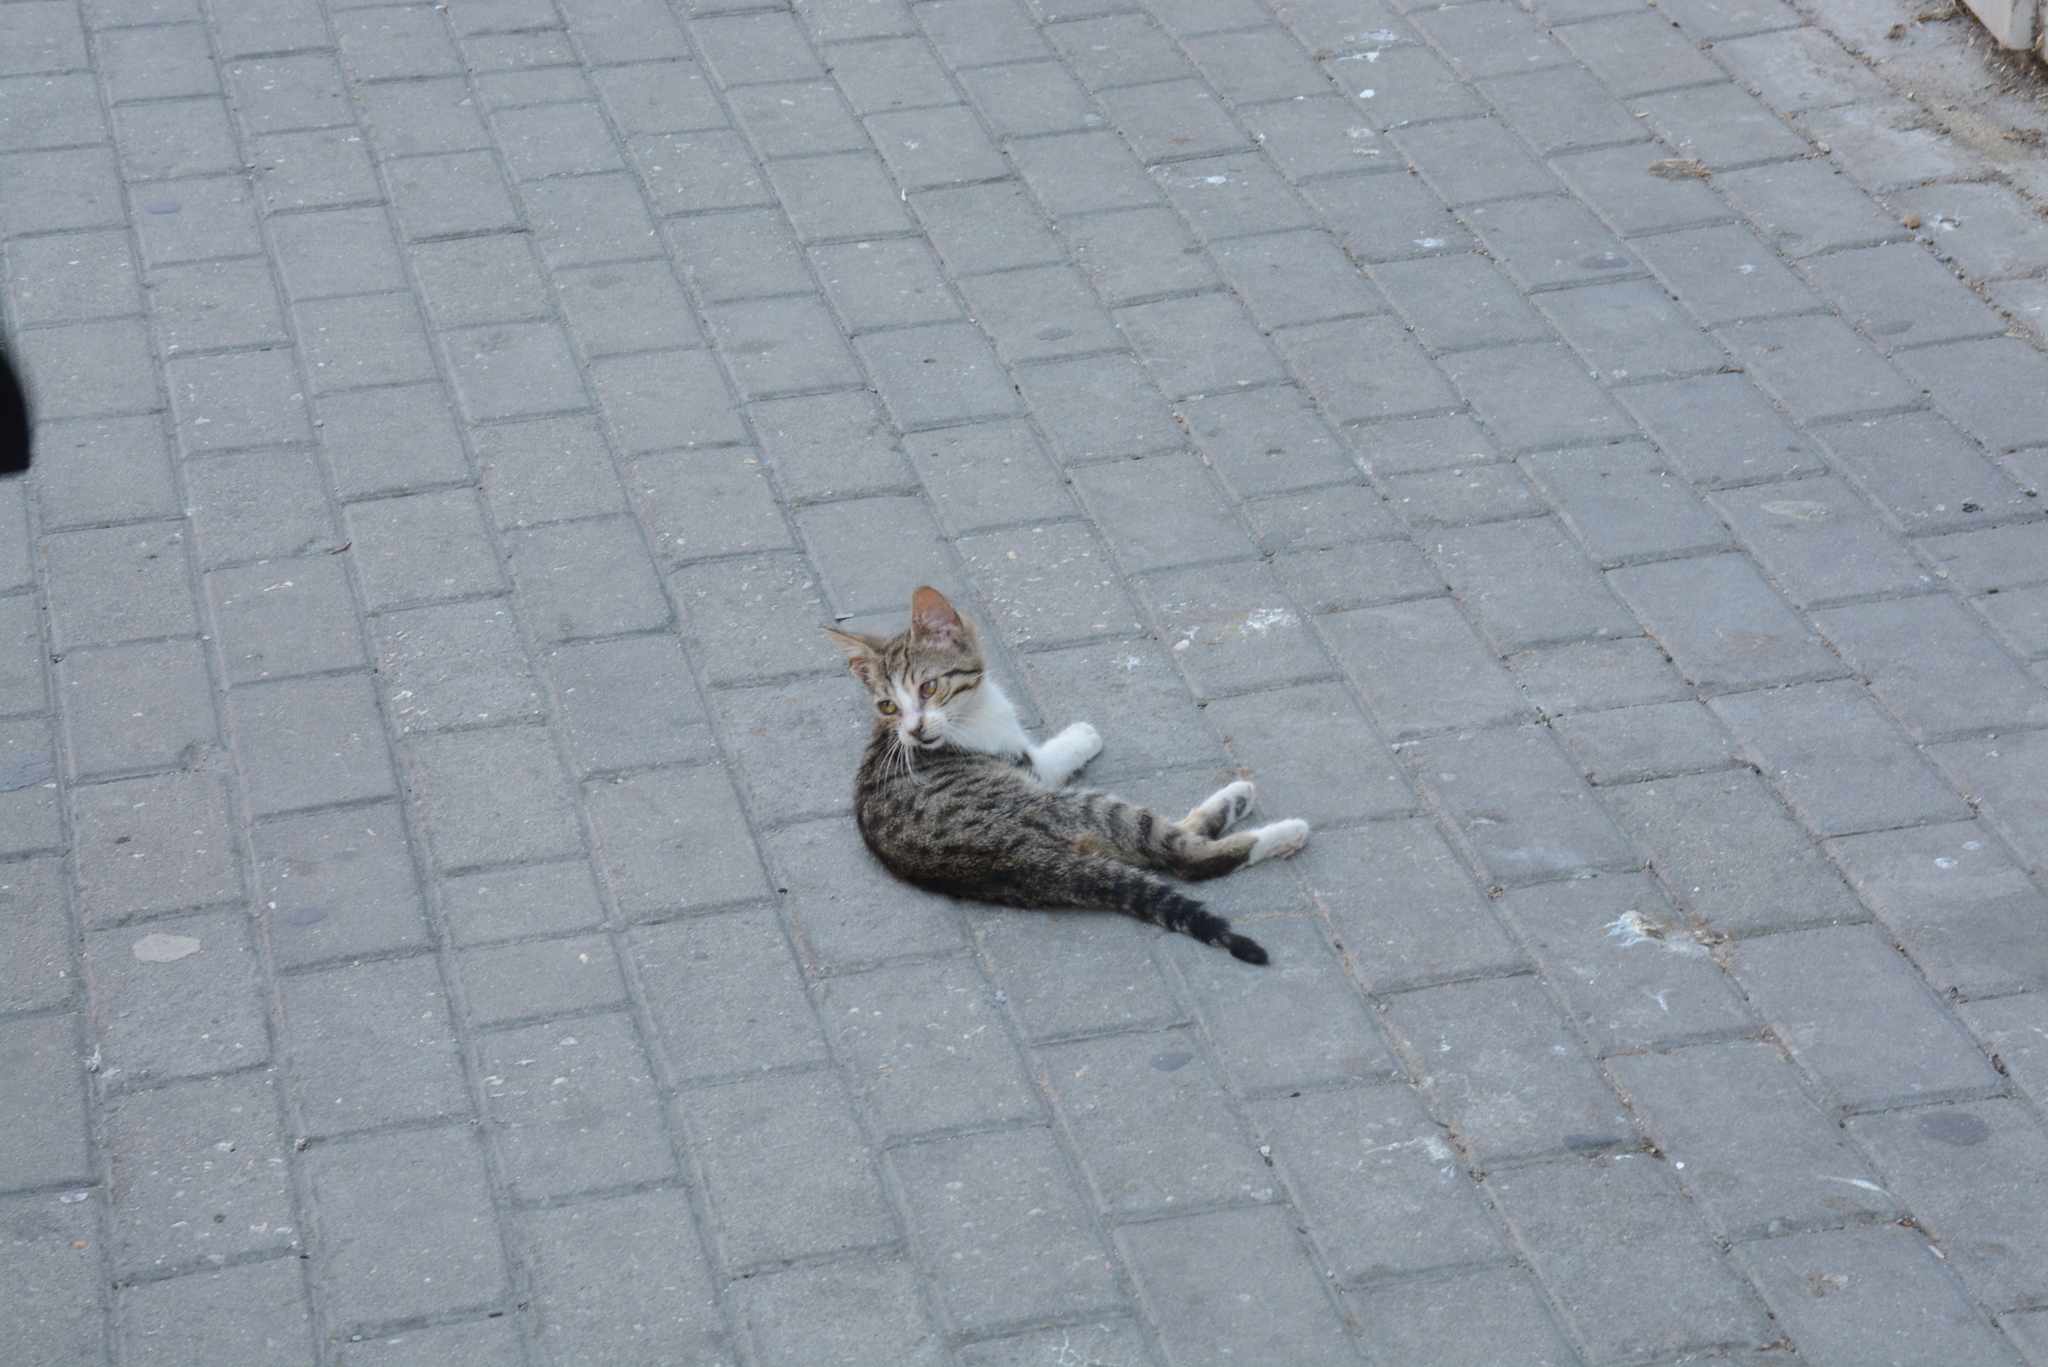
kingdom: Animalia
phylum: Chordata
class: Mammalia
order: Carnivora
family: Felidae
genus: Felis
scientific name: Felis catus
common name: Domestic cat
